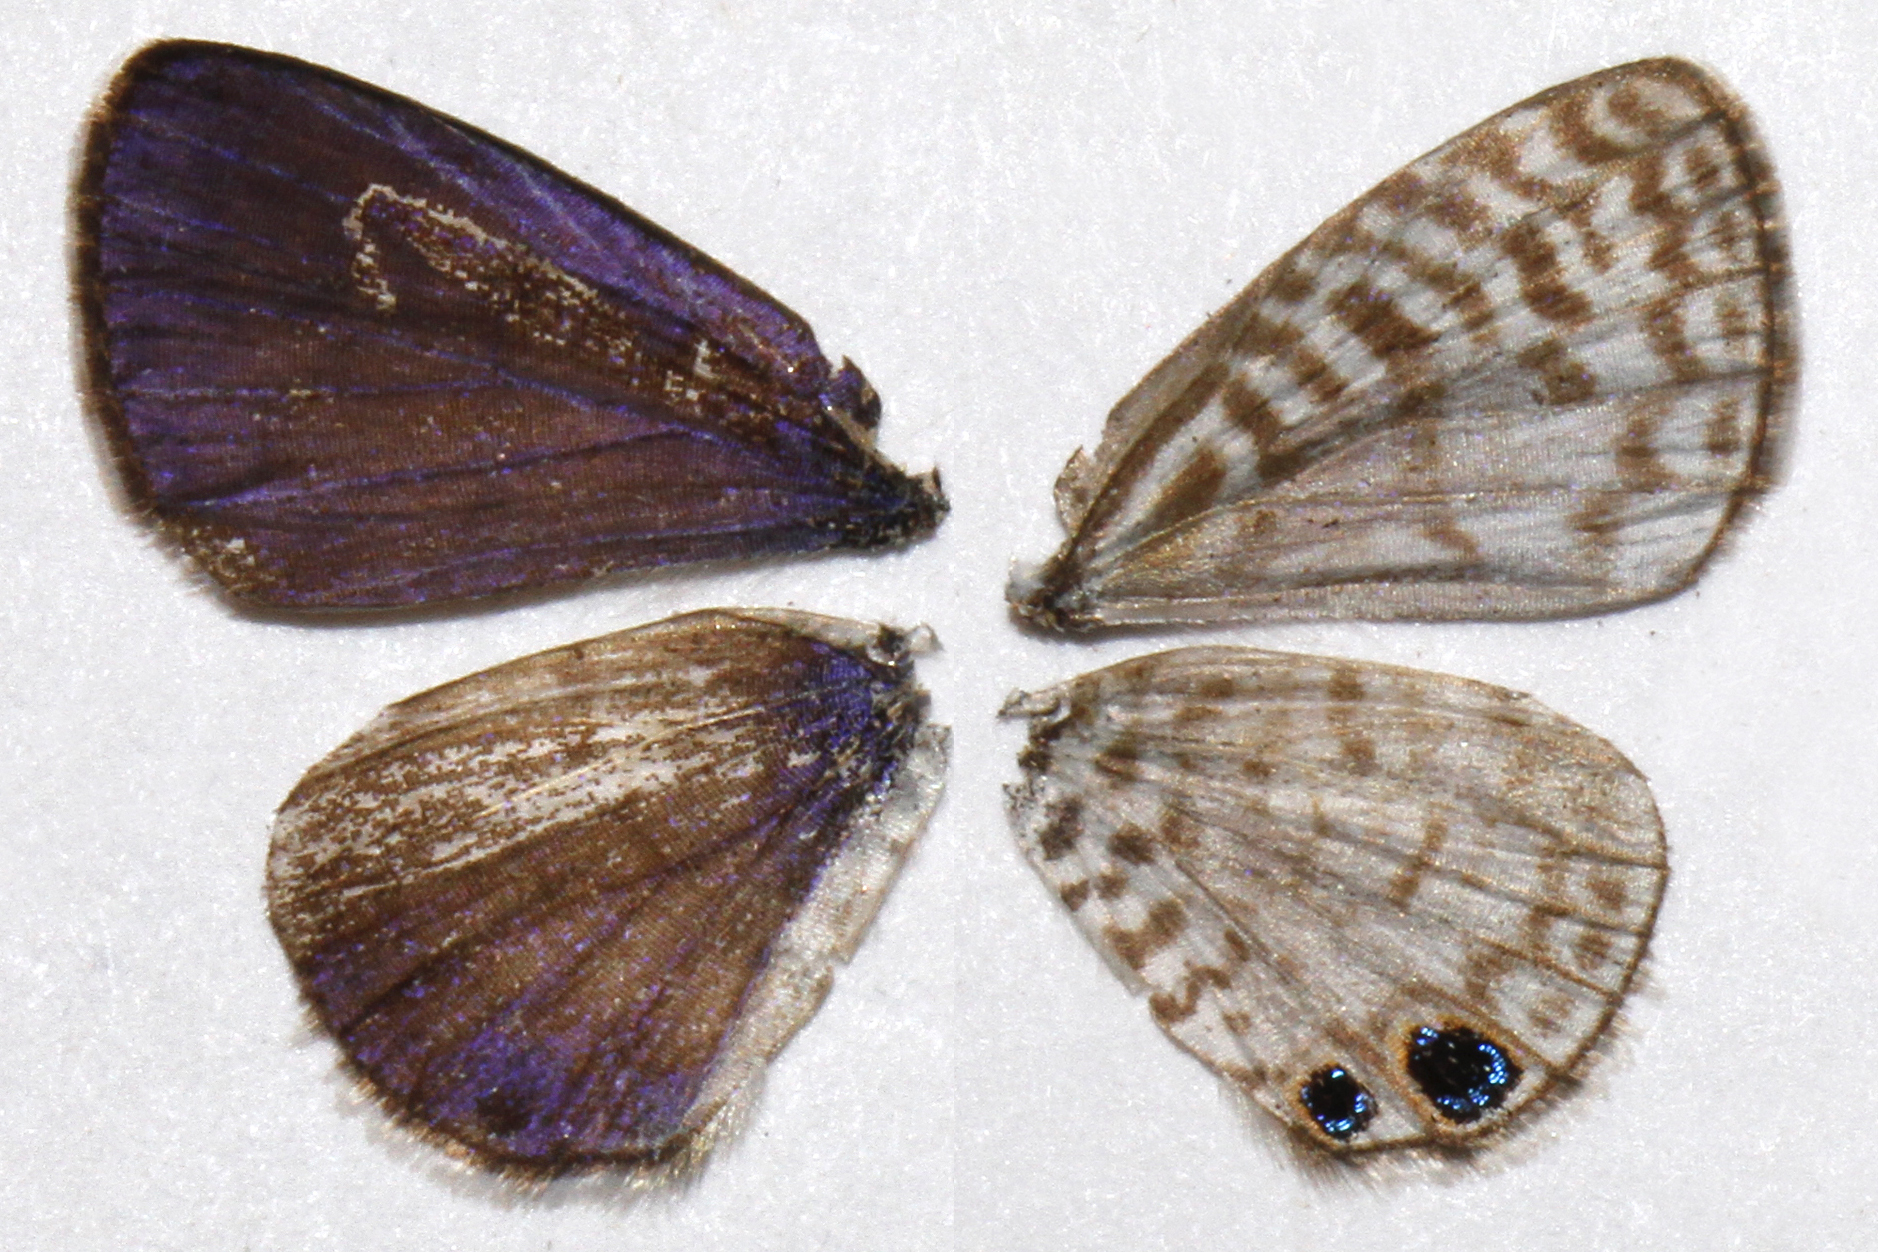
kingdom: Animalia
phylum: Arthropoda
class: Insecta
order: Lepidoptera
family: Lycaenidae
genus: Leptotes
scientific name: Leptotes cassius
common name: Cassius blue
